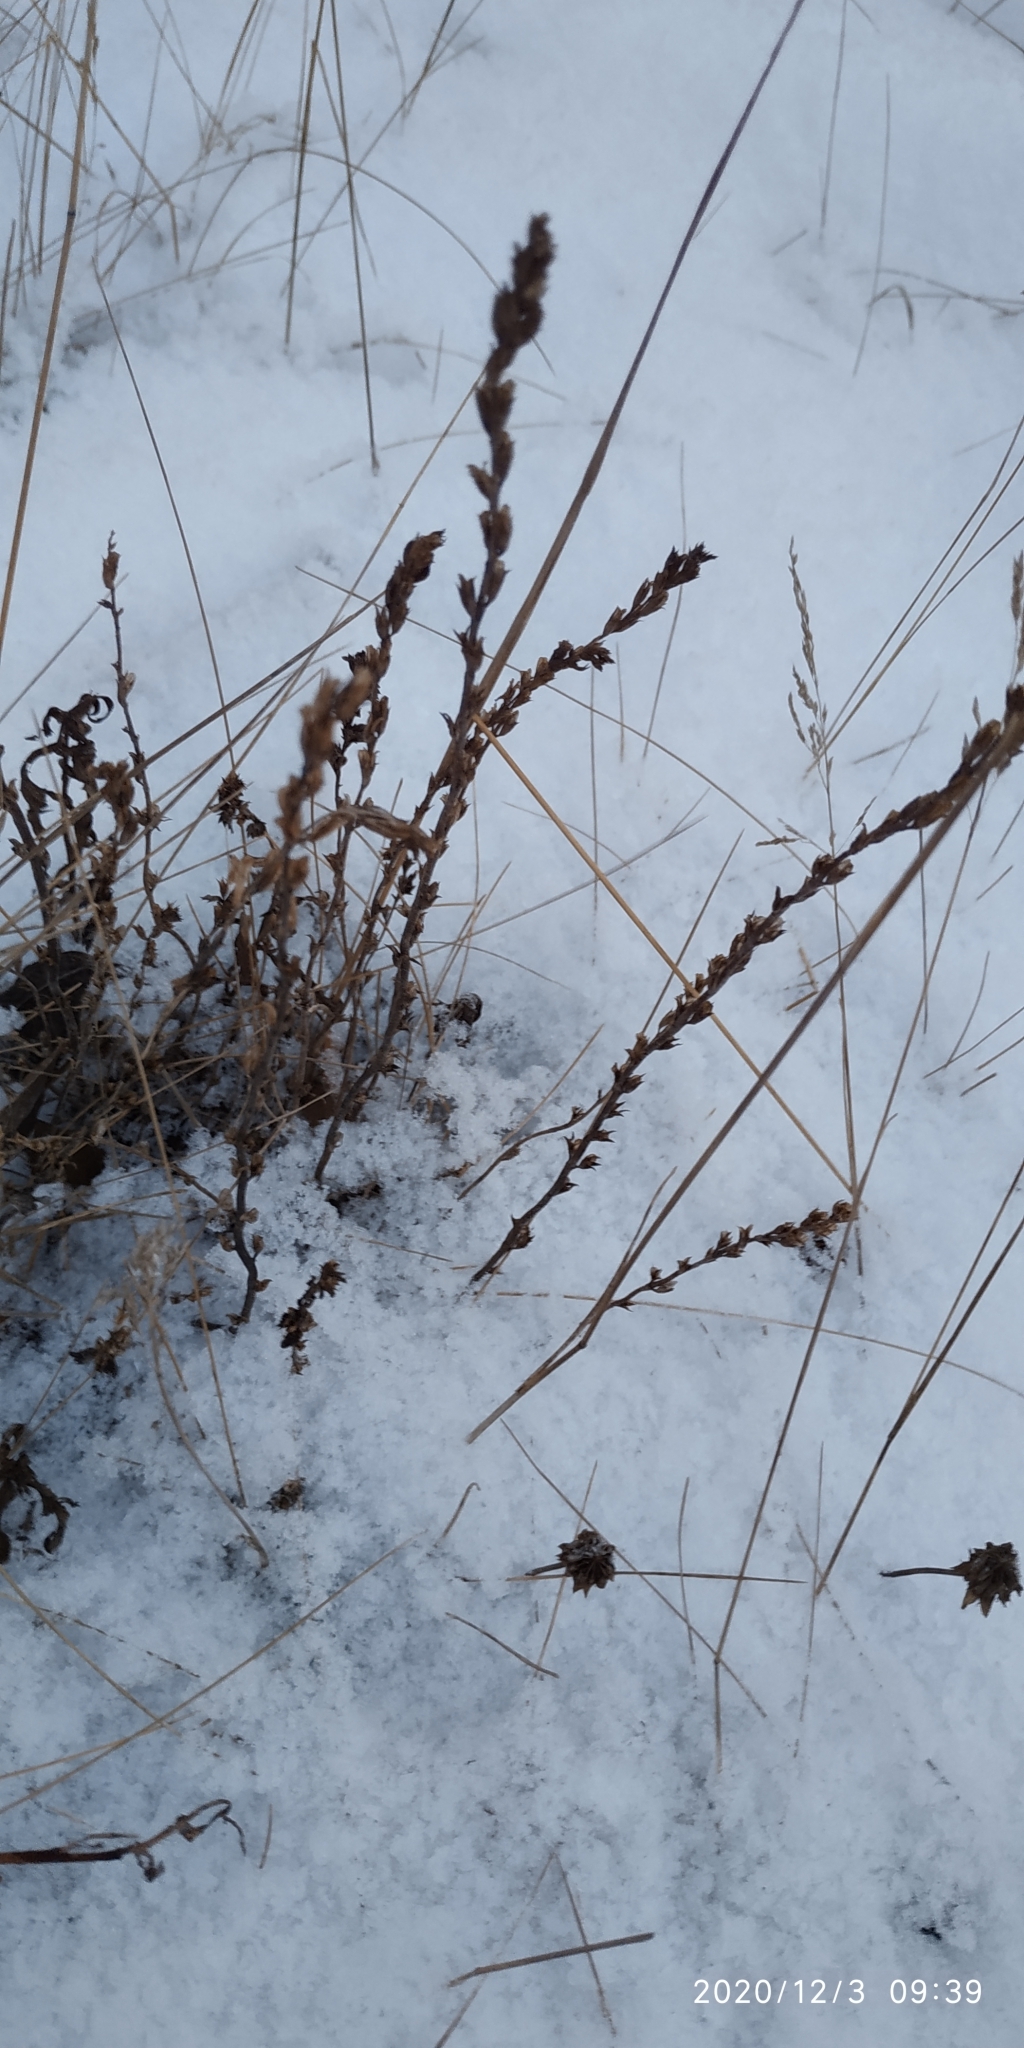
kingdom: Plantae
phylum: Tracheophyta
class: Magnoliopsida
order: Lamiales
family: Orobanchaceae
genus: Odontites
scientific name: Odontites vulgaris
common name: Broomrape
